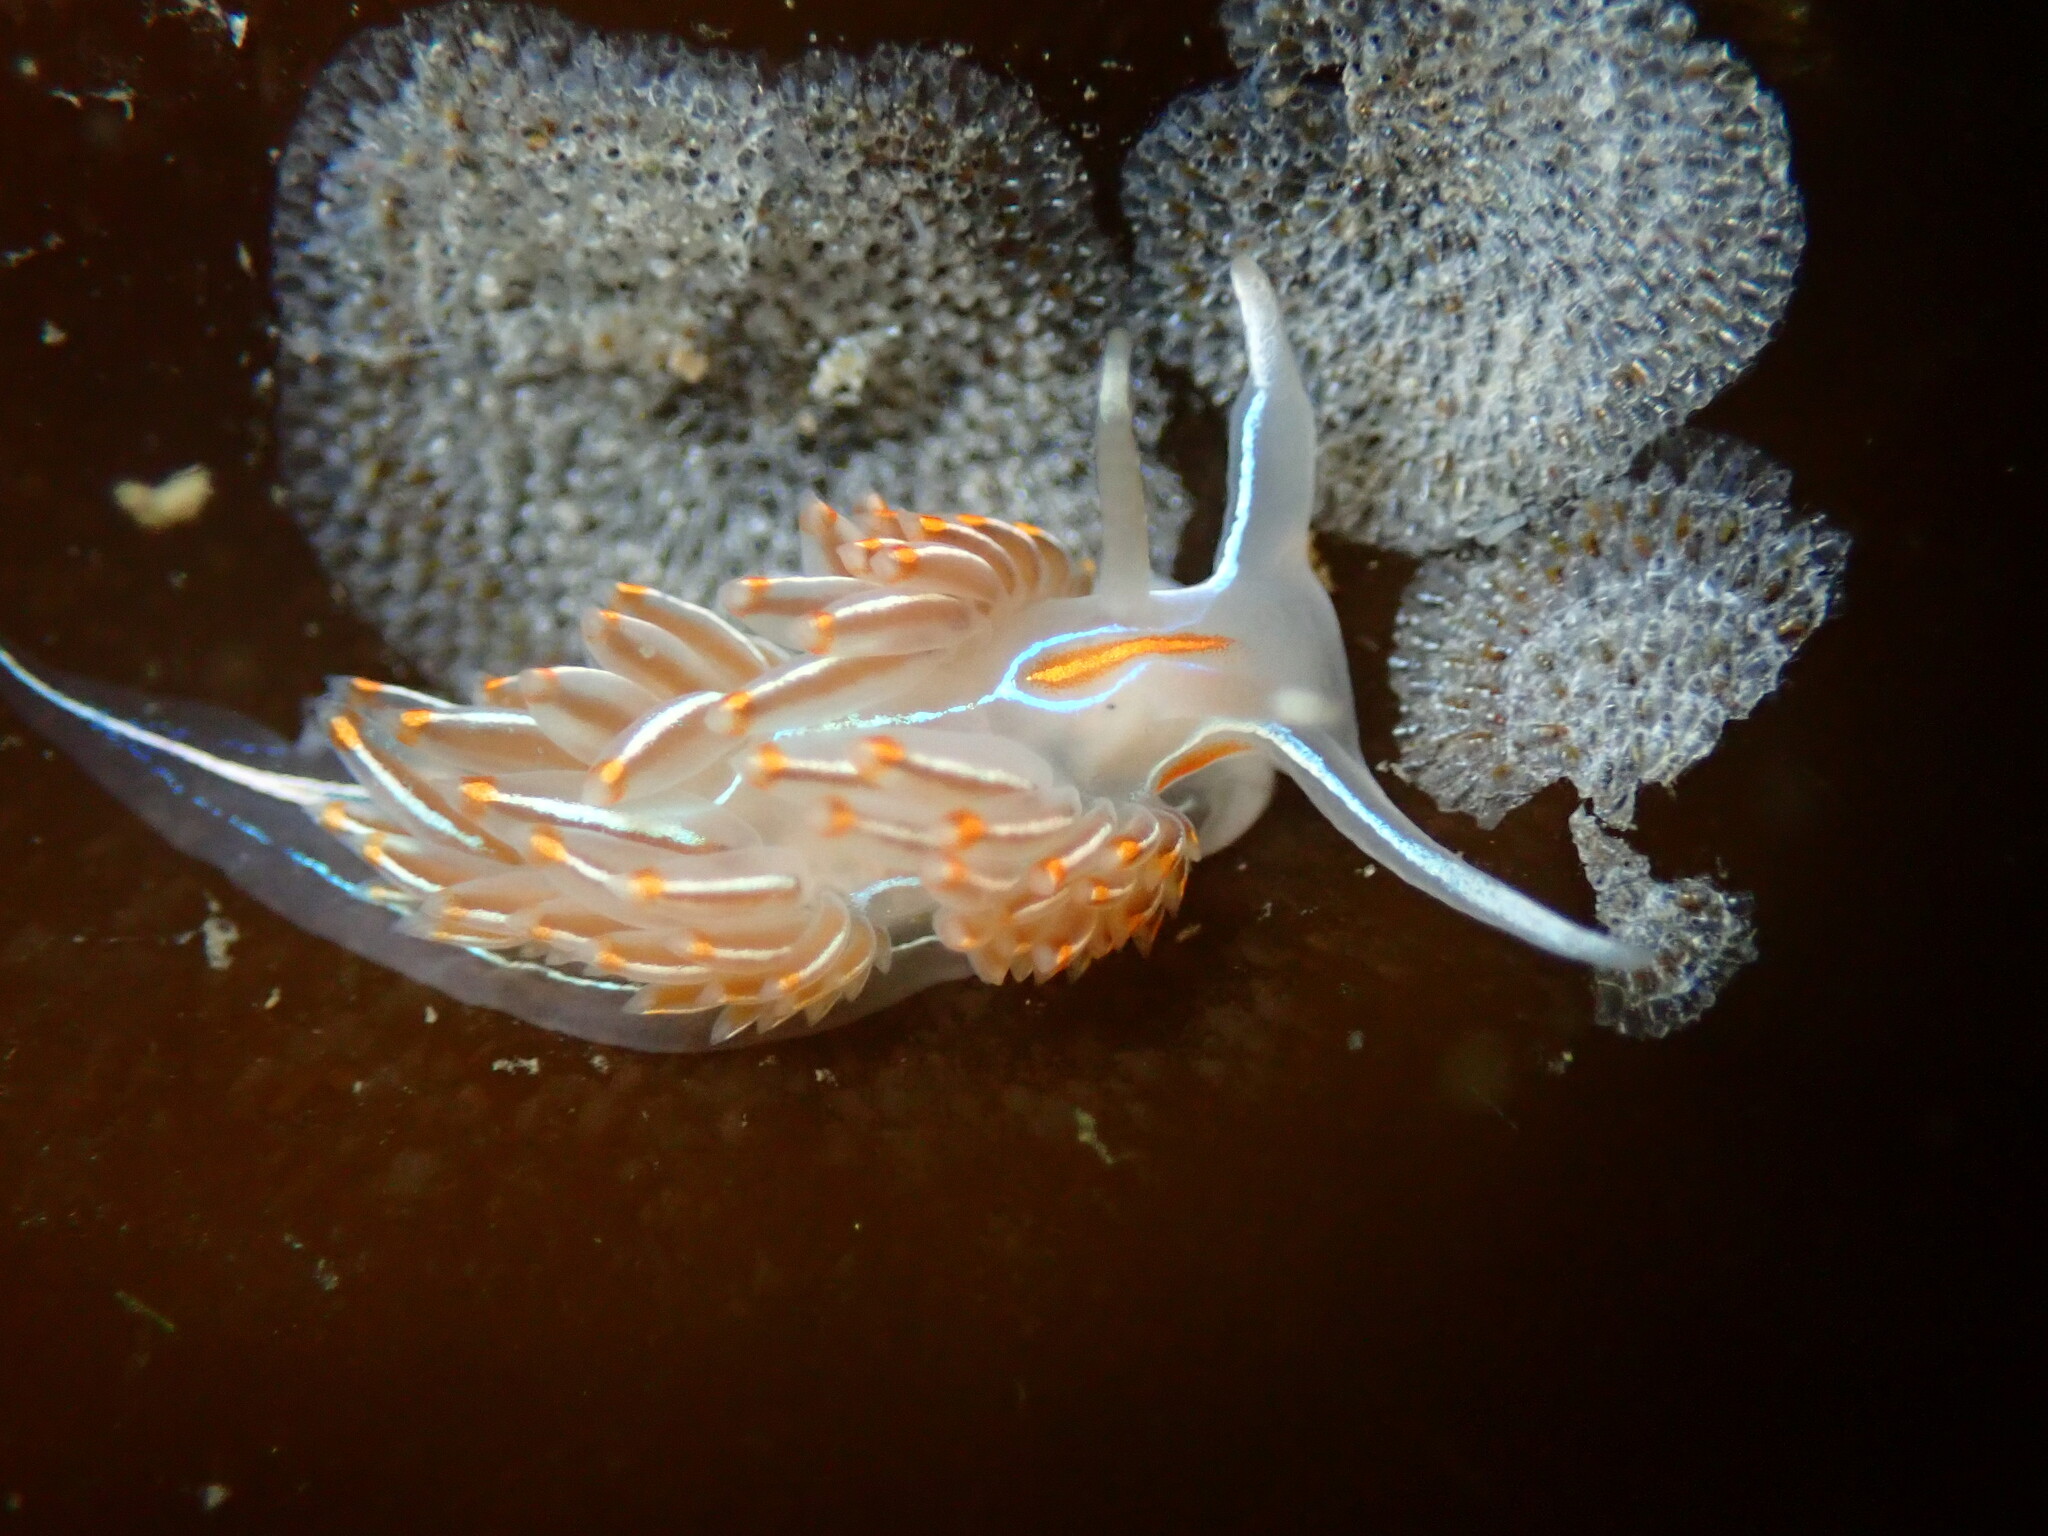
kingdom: Animalia
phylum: Mollusca
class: Gastropoda
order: Nudibranchia
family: Myrrhinidae
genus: Hermissenda
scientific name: Hermissenda crassicornis
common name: Hermissenda
